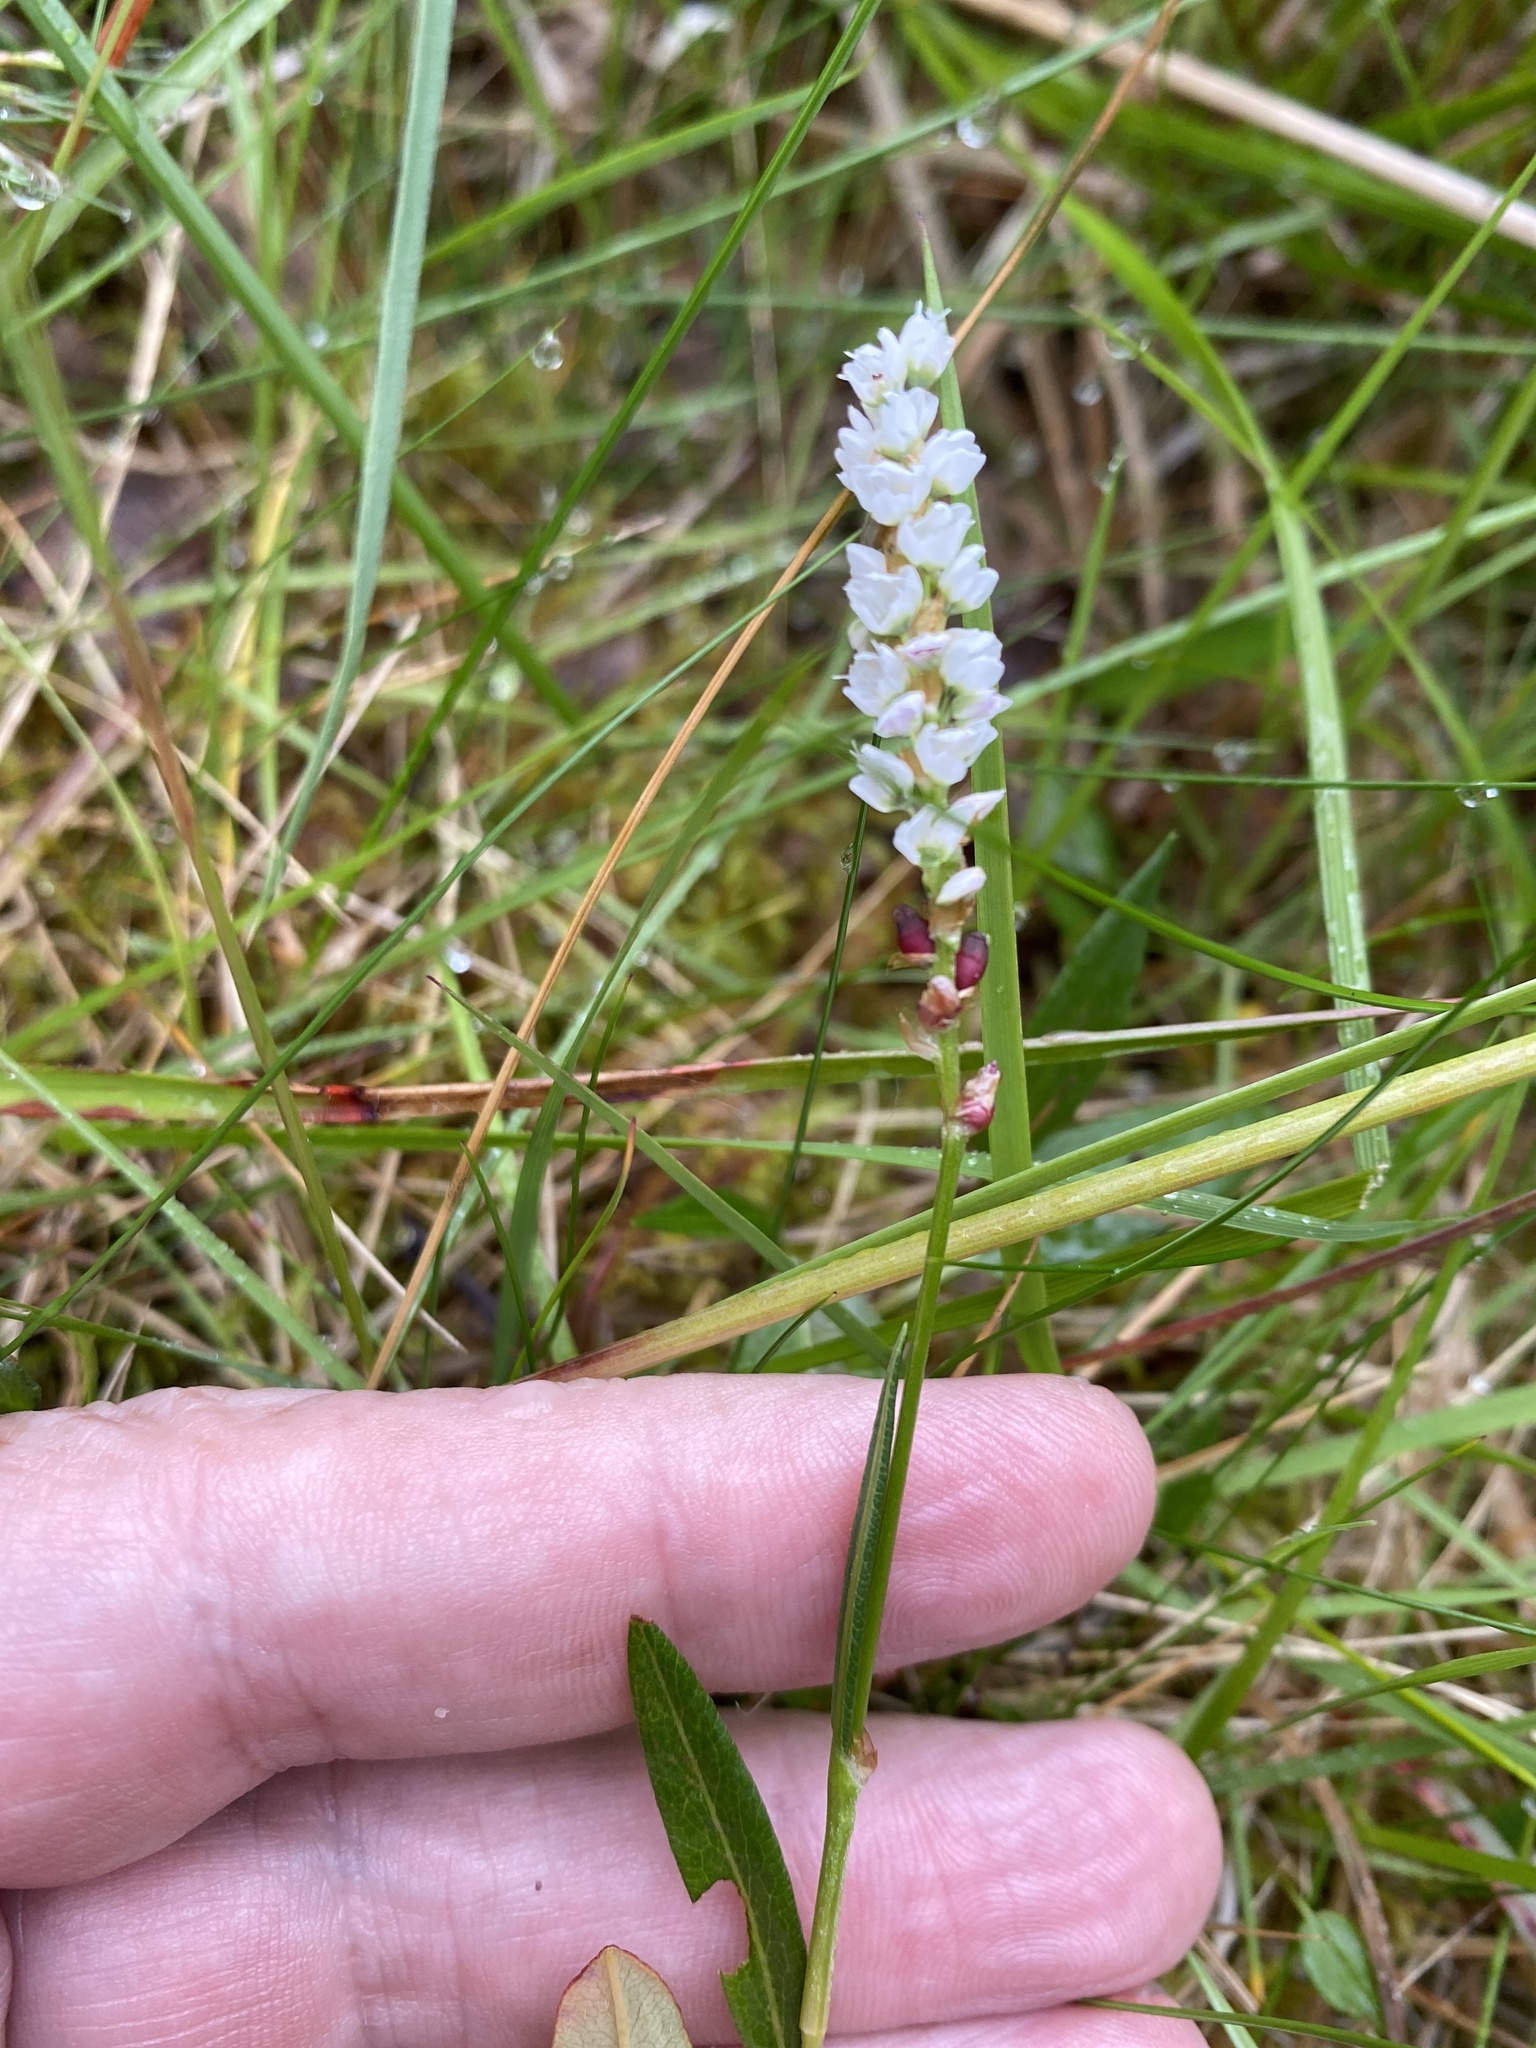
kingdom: Plantae
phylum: Tracheophyta
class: Magnoliopsida
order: Caryophyllales
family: Polygonaceae
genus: Bistorta
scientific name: Bistorta vivipara
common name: Alpine bistort
